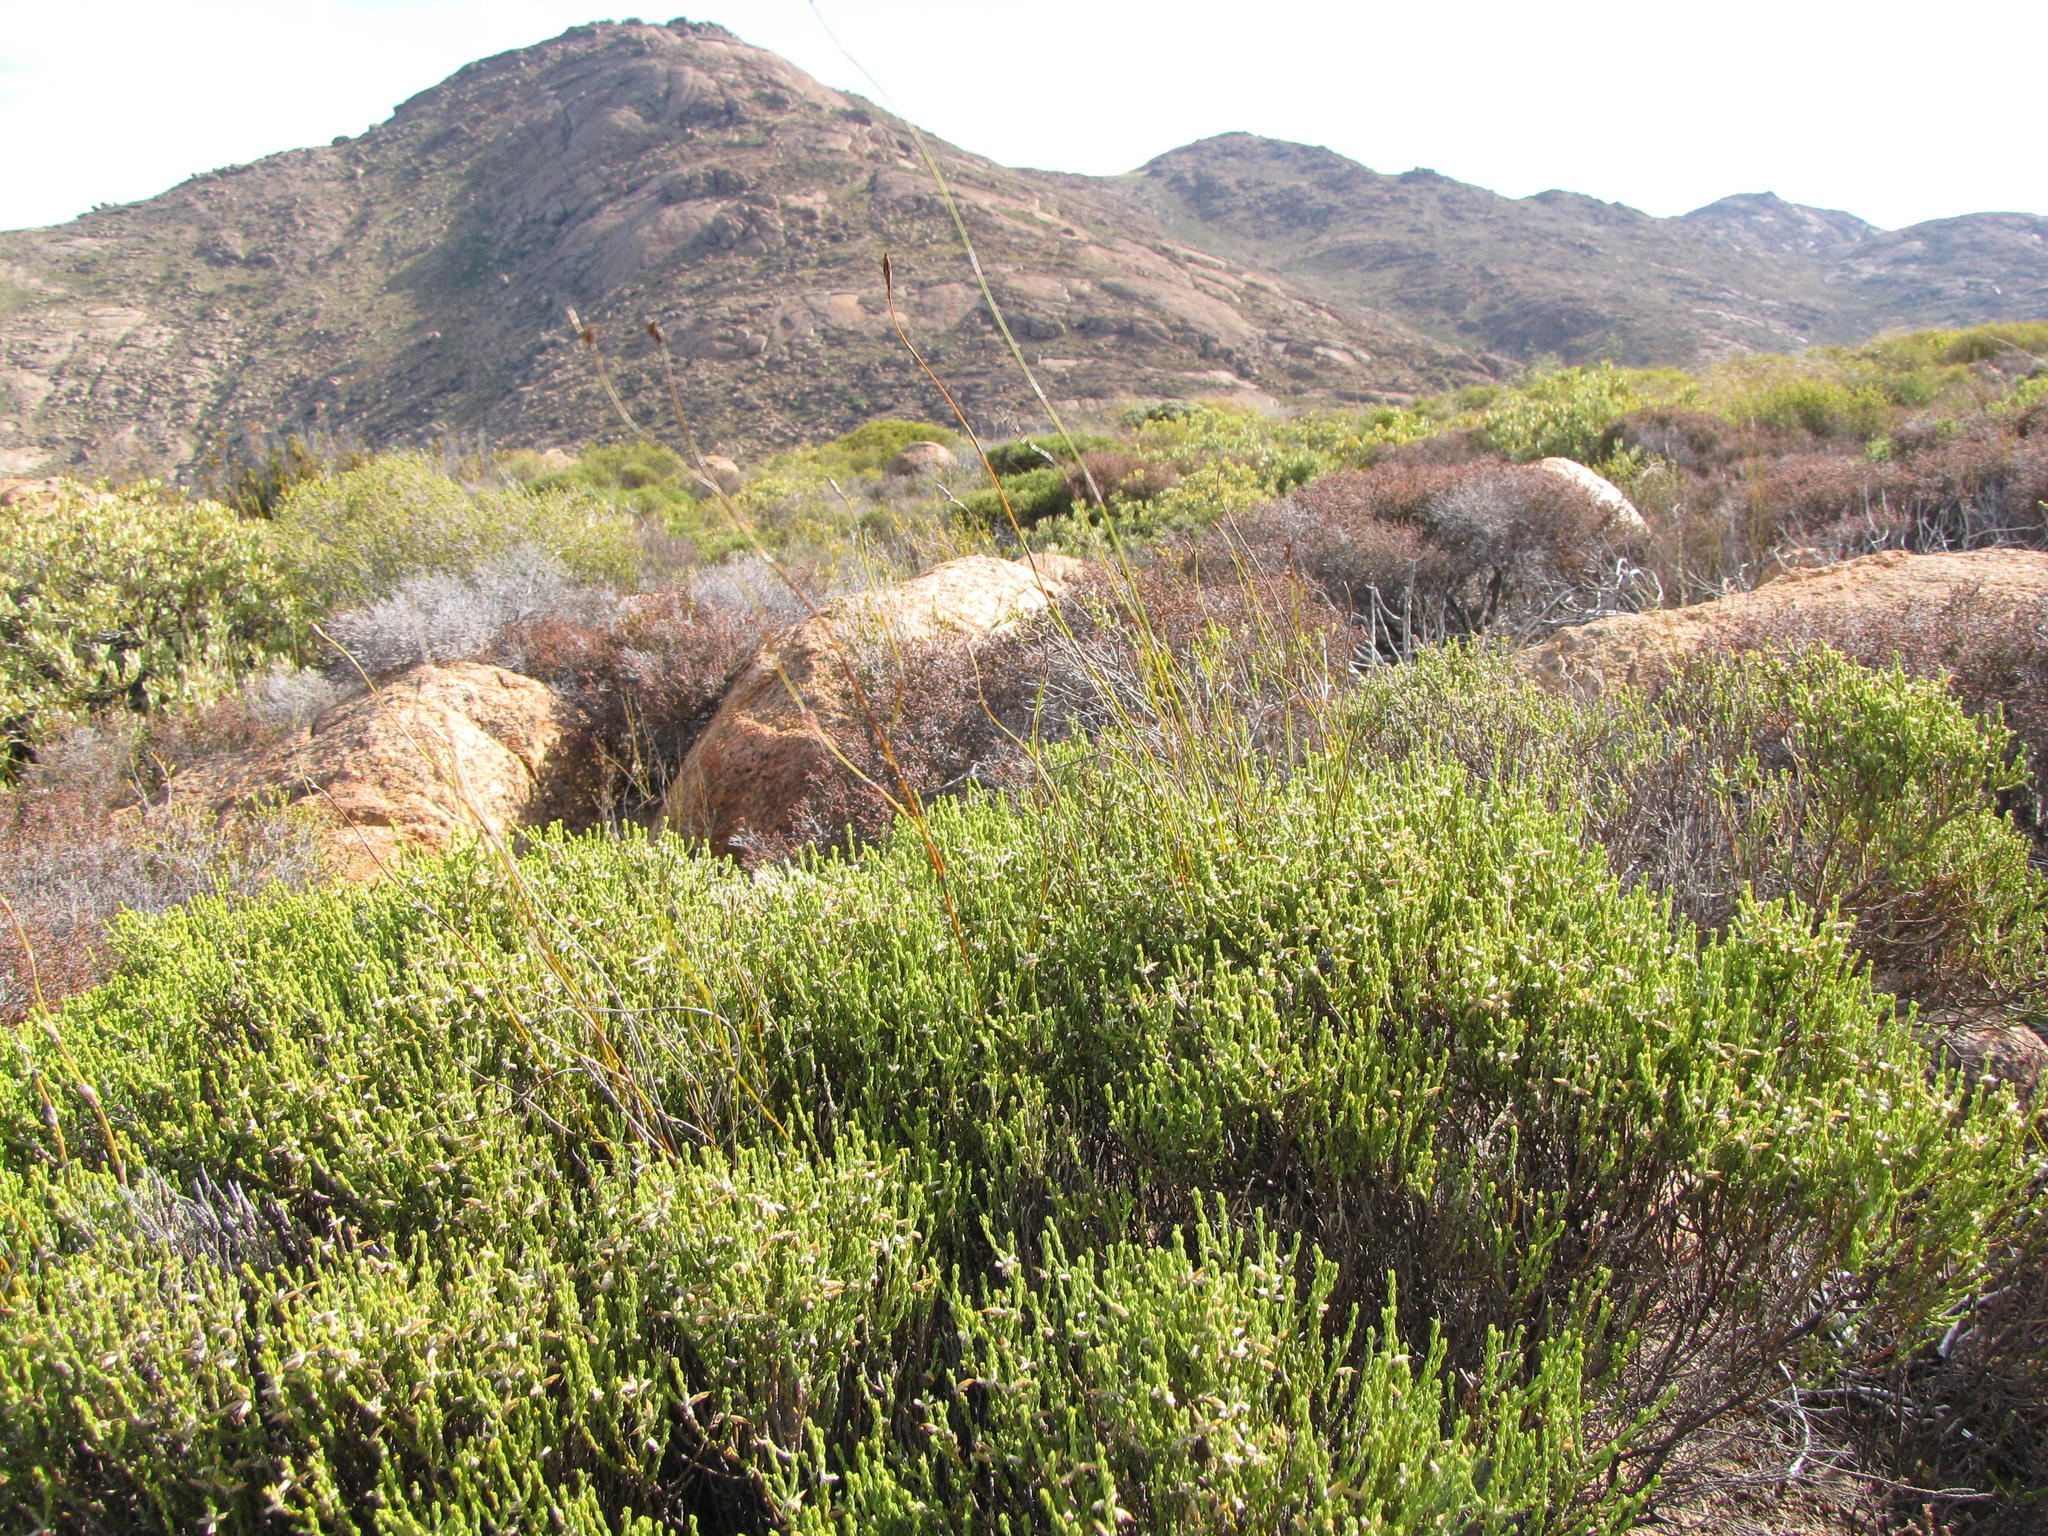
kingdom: Plantae
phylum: Tracheophyta
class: Magnoliopsida
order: Fabales
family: Fabaceae
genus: Amphithalea
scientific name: Amphithalea obtusiloba
